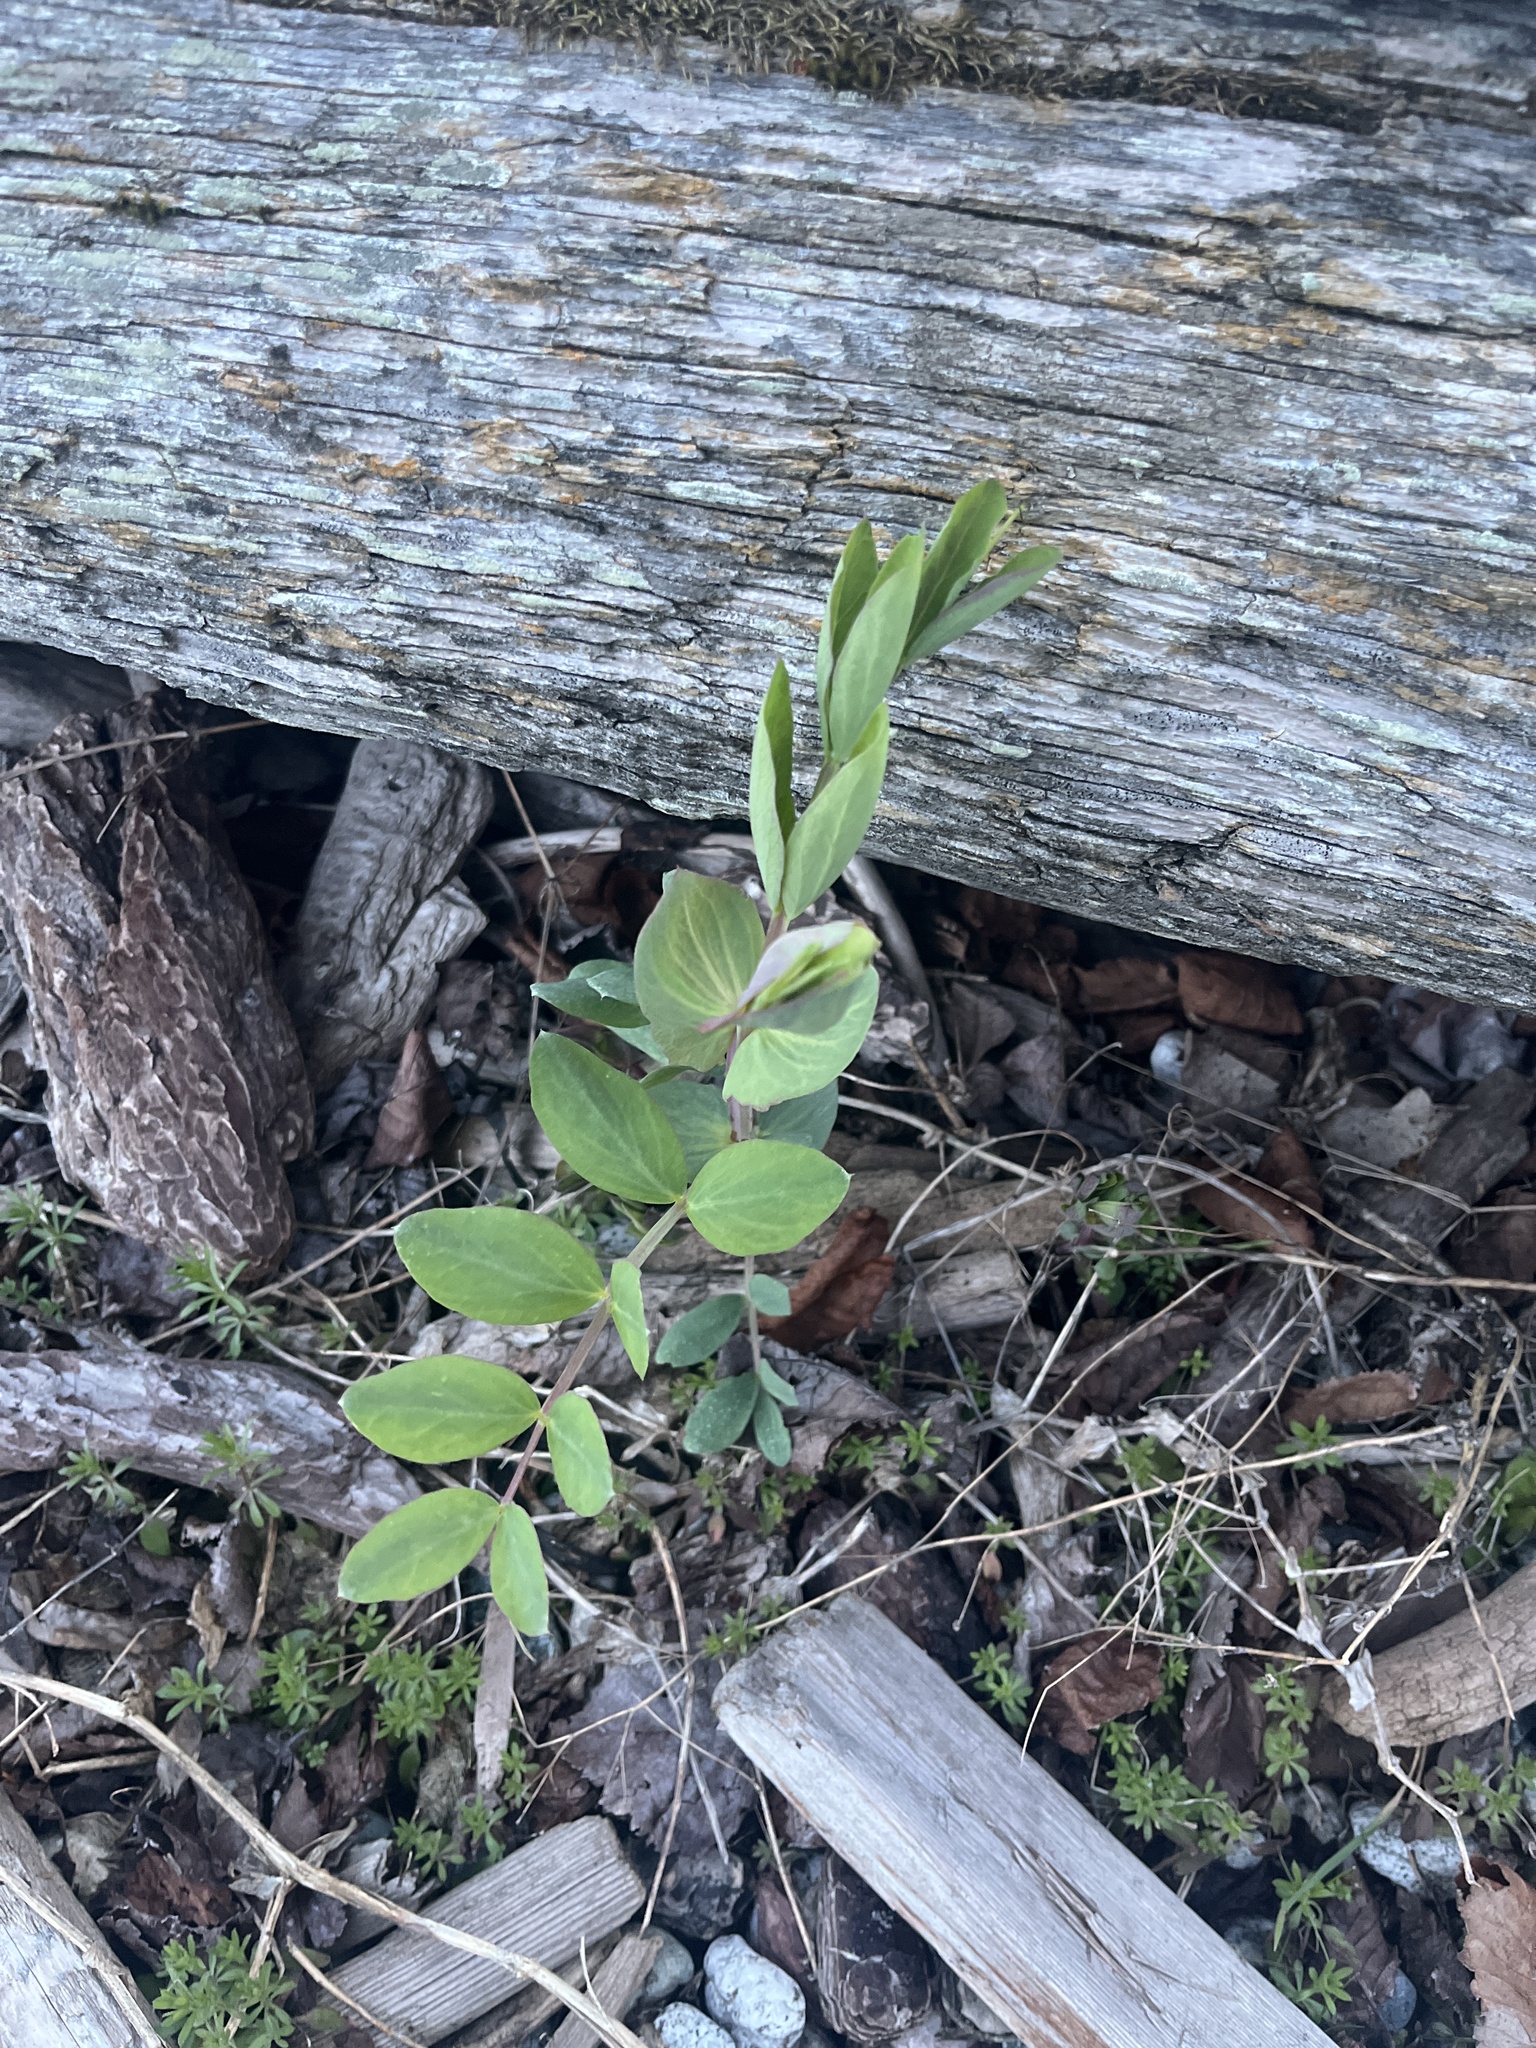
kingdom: Plantae
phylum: Tracheophyta
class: Magnoliopsida
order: Fabales
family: Fabaceae
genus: Lathyrus
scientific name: Lathyrus japonicus
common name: Sea pea
